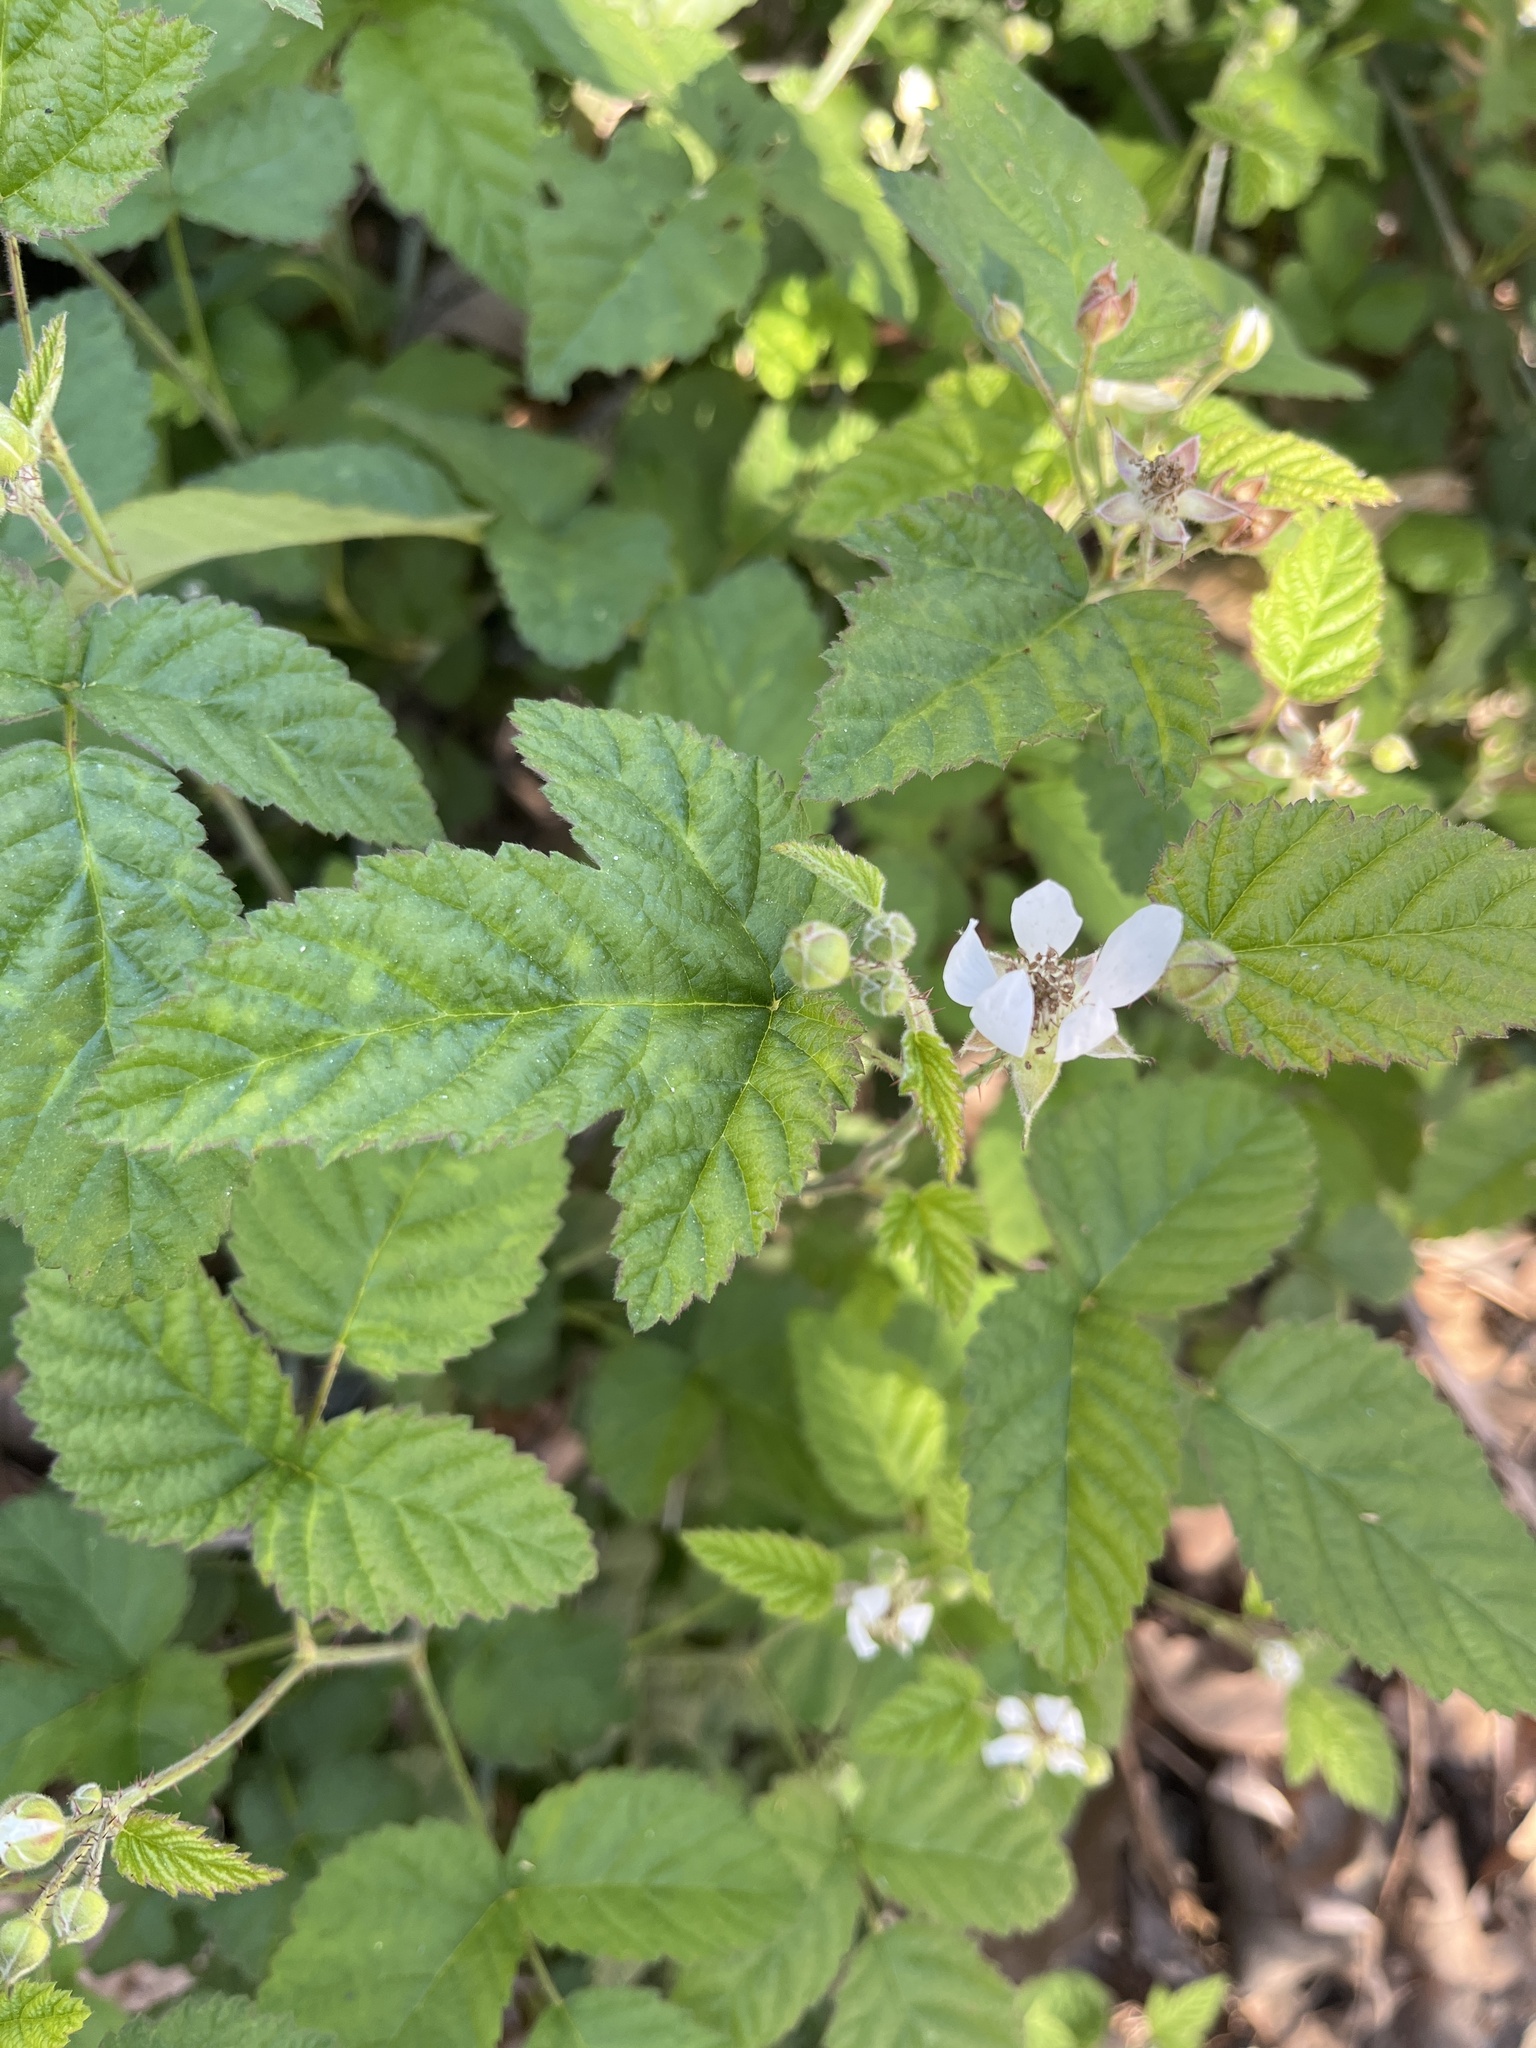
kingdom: Plantae
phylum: Tracheophyta
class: Magnoliopsida
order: Rosales
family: Rosaceae
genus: Rubus
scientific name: Rubus ursinus
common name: Pacific blackberry
